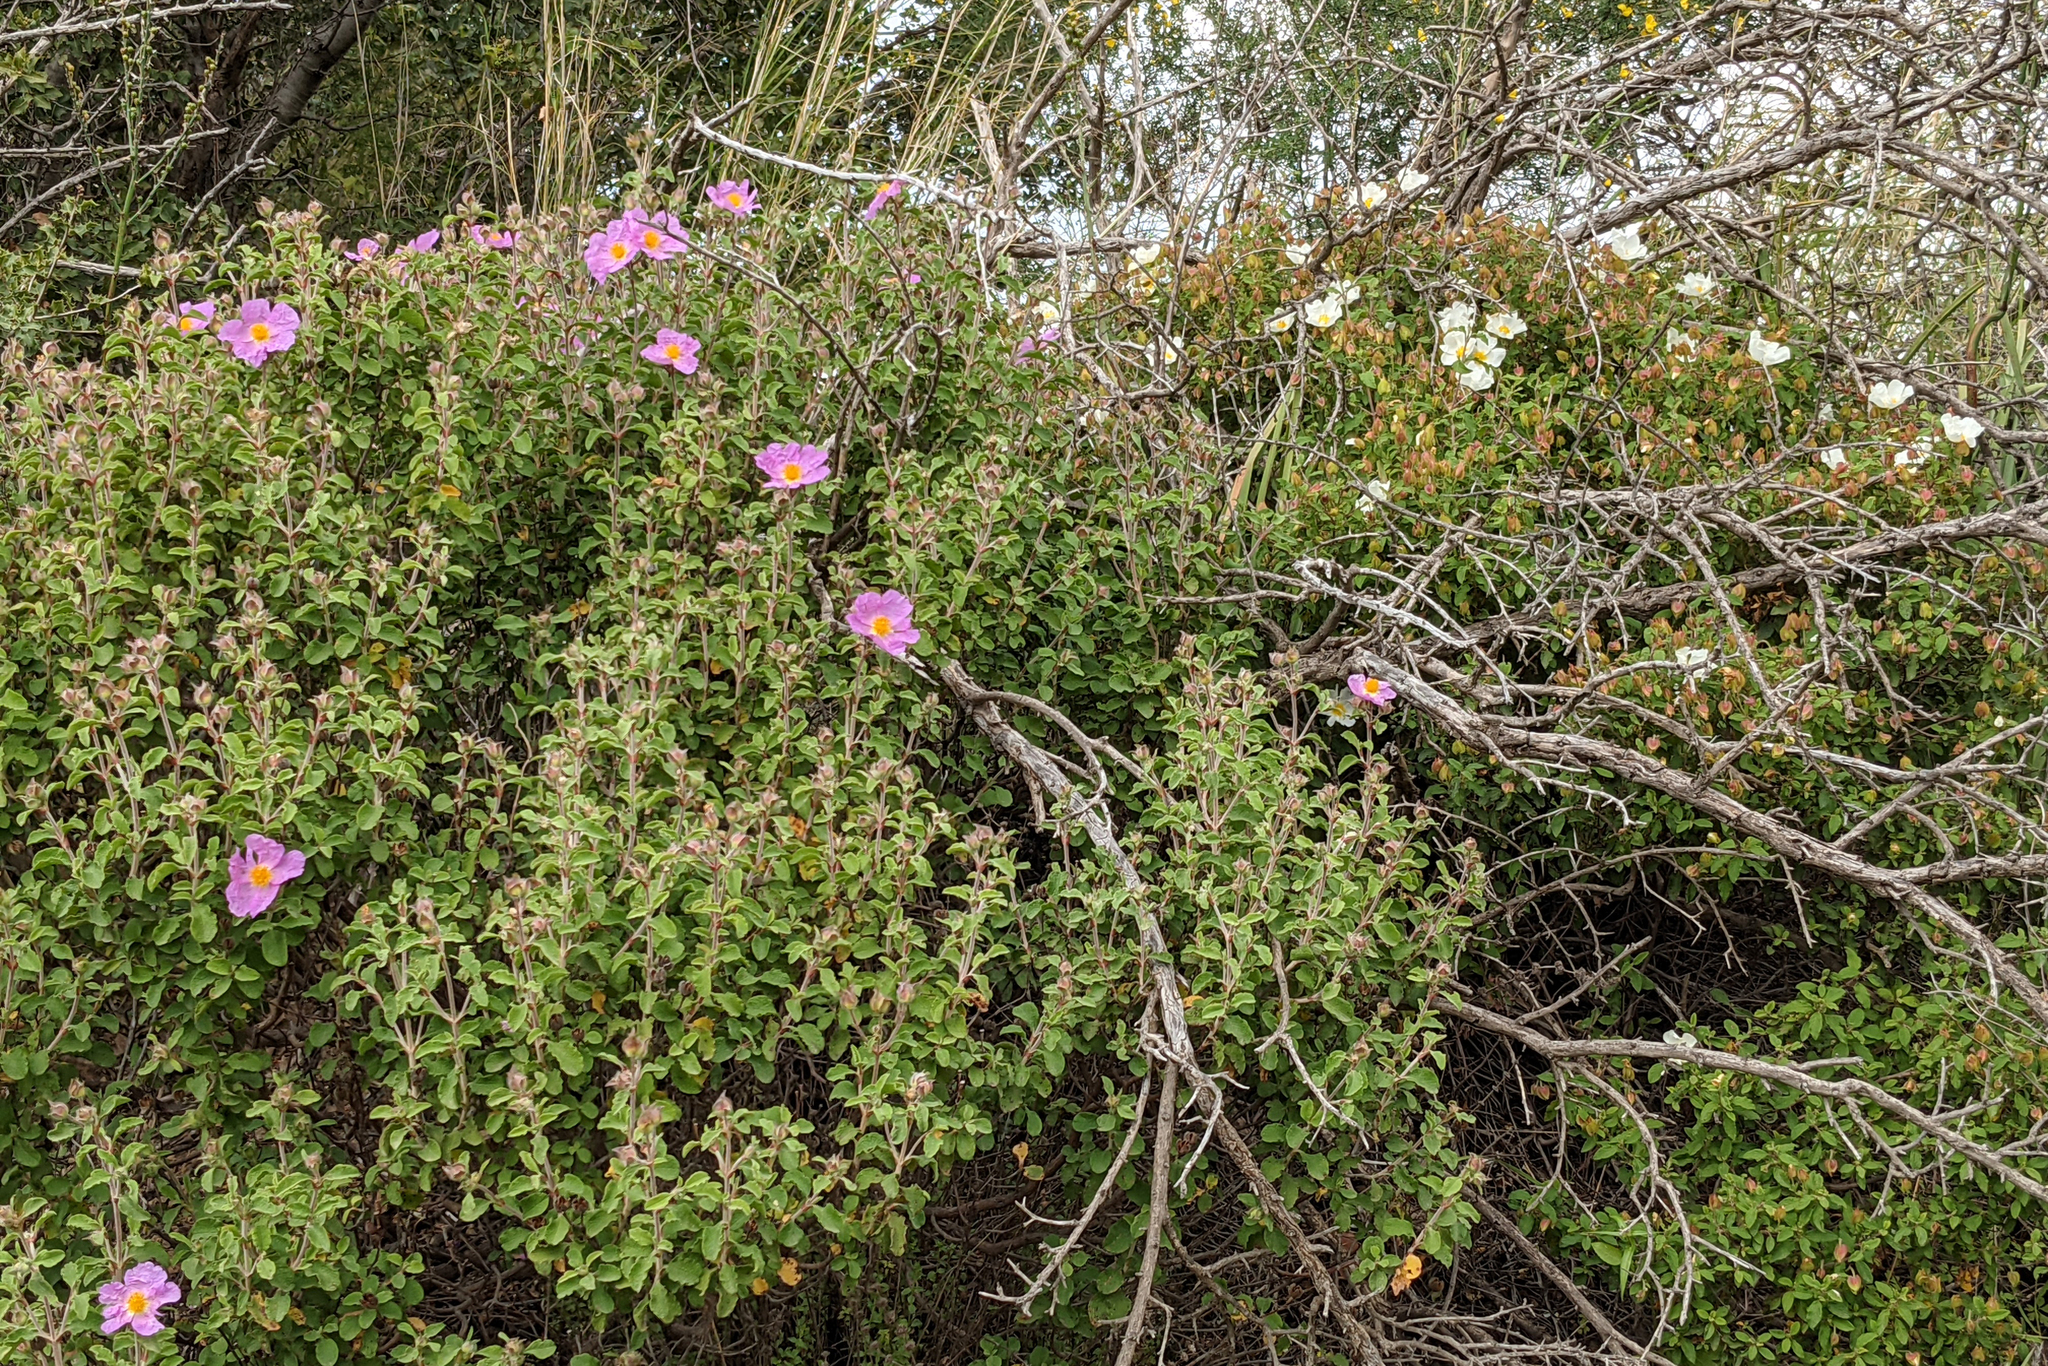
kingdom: Plantae
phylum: Tracheophyta
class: Magnoliopsida
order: Malvales
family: Cistaceae
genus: Cistus
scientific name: Cistus creticus
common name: Cretan rockrose
